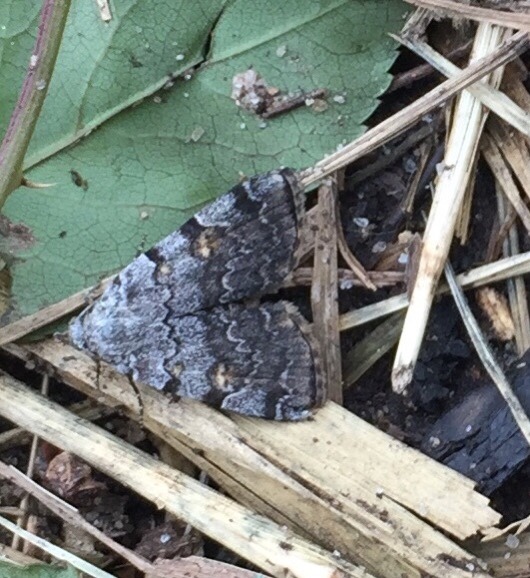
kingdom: Animalia
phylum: Arthropoda
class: Insecta
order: Lepidoptera
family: Erebidae
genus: Idia
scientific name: Idia americalis
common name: American idia moth
